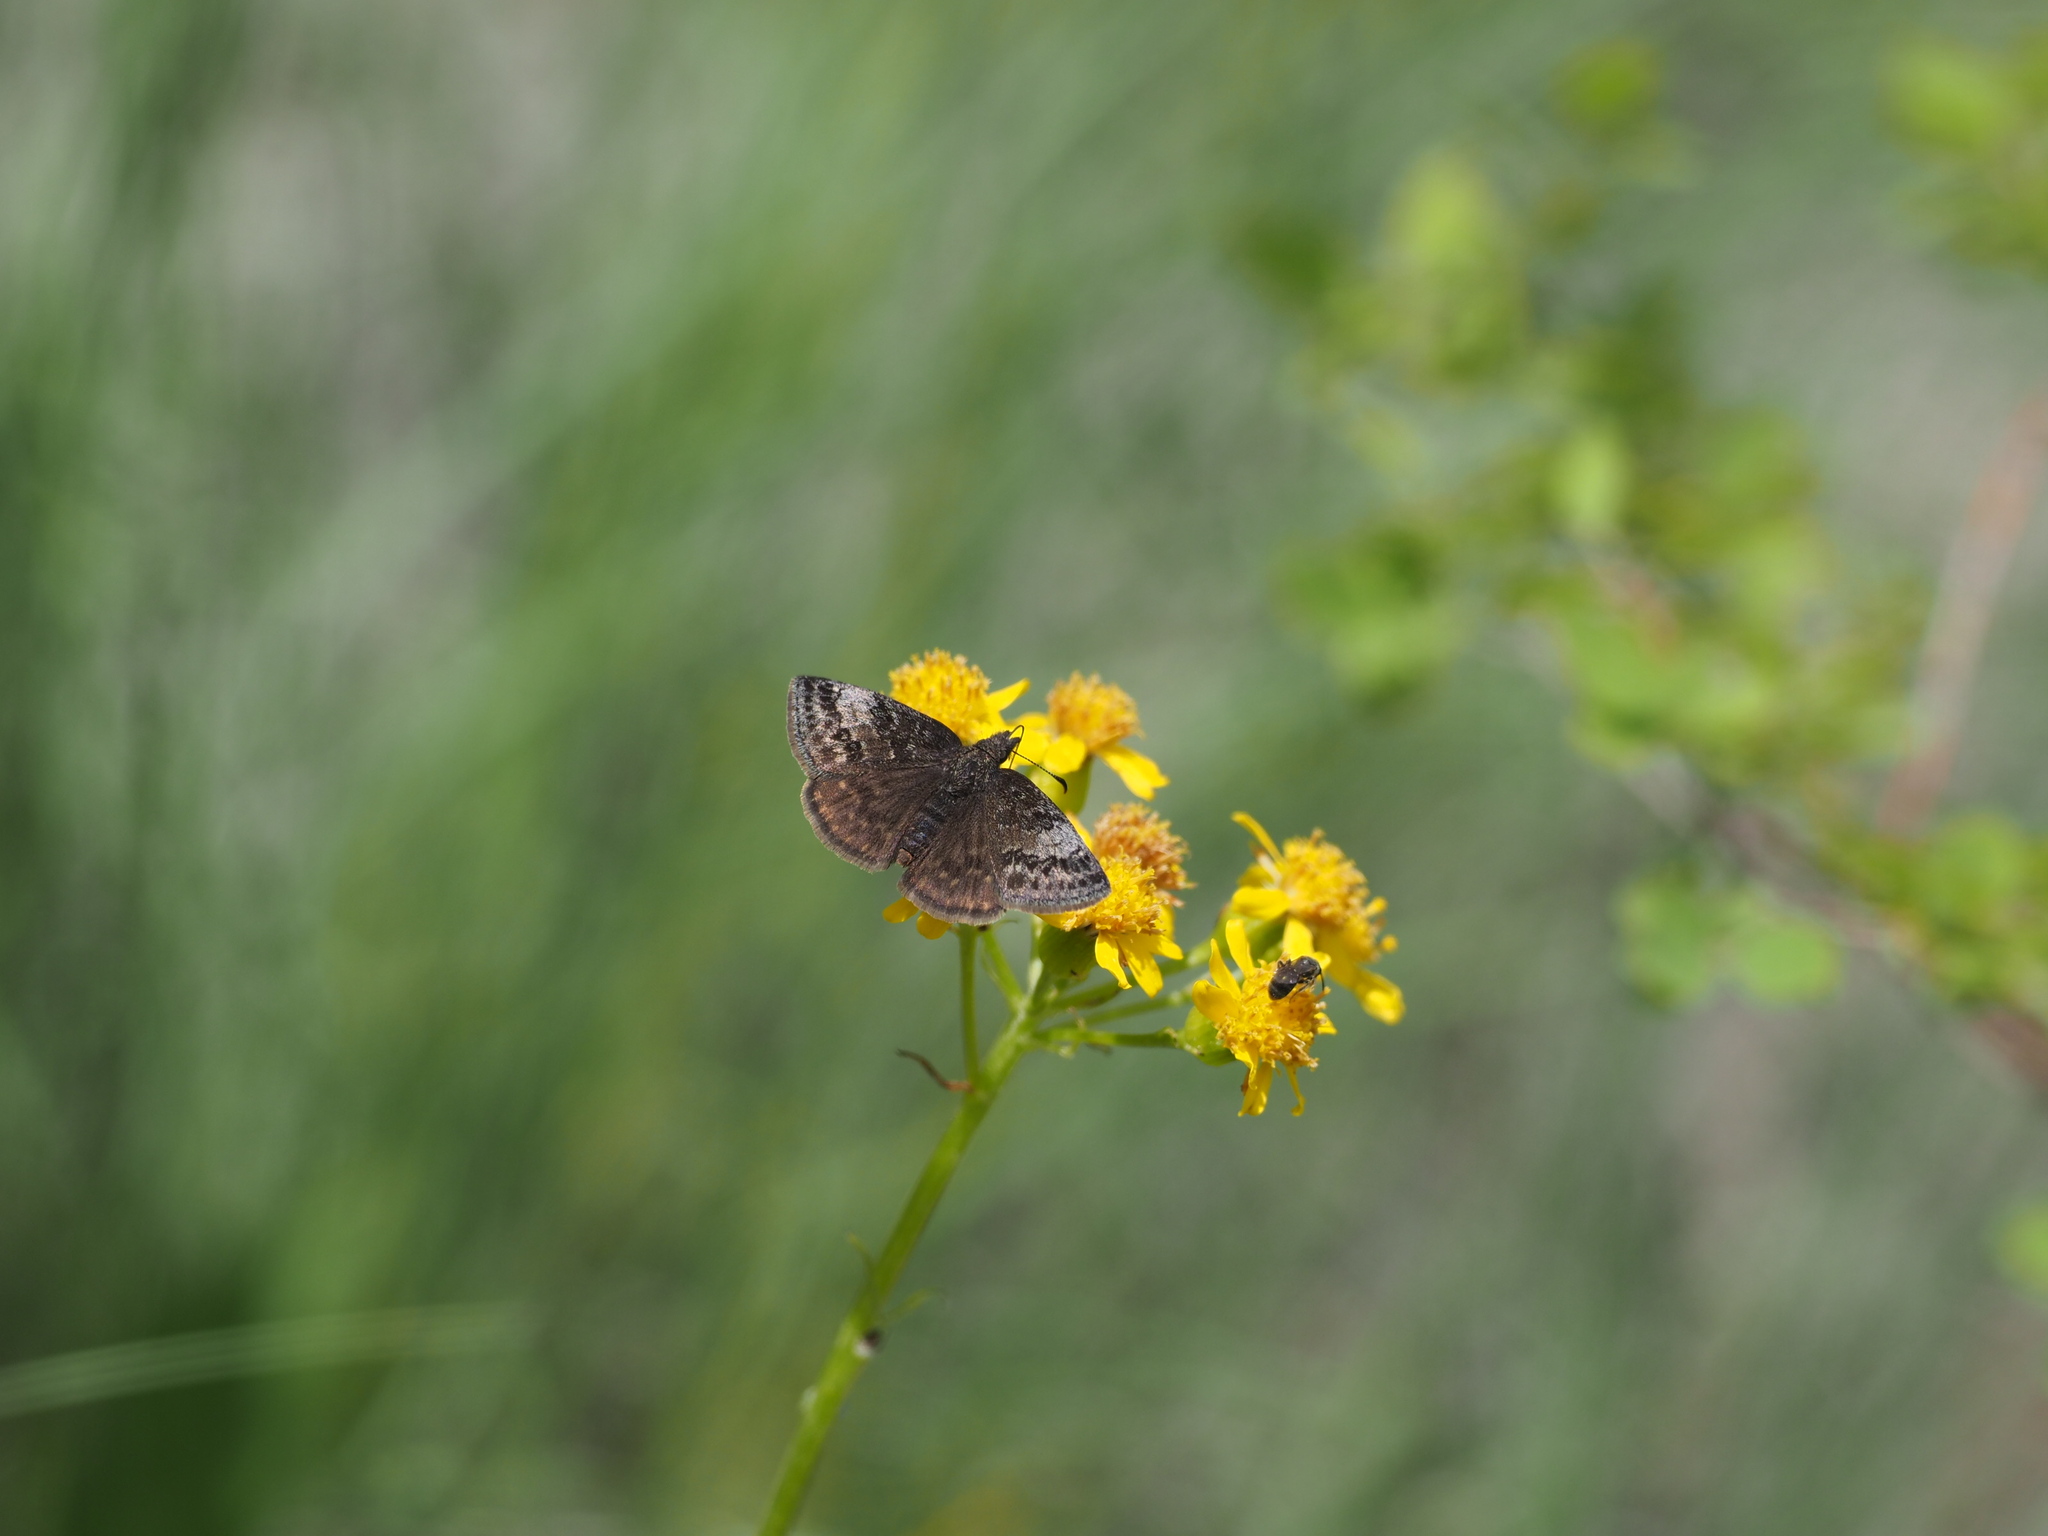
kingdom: Animalia
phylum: Arthropoda
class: Insecta
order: Lepidoptera
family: Hesperiidae
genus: Erynnis
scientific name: Erynnis icelus
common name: Dreamy duskywing
